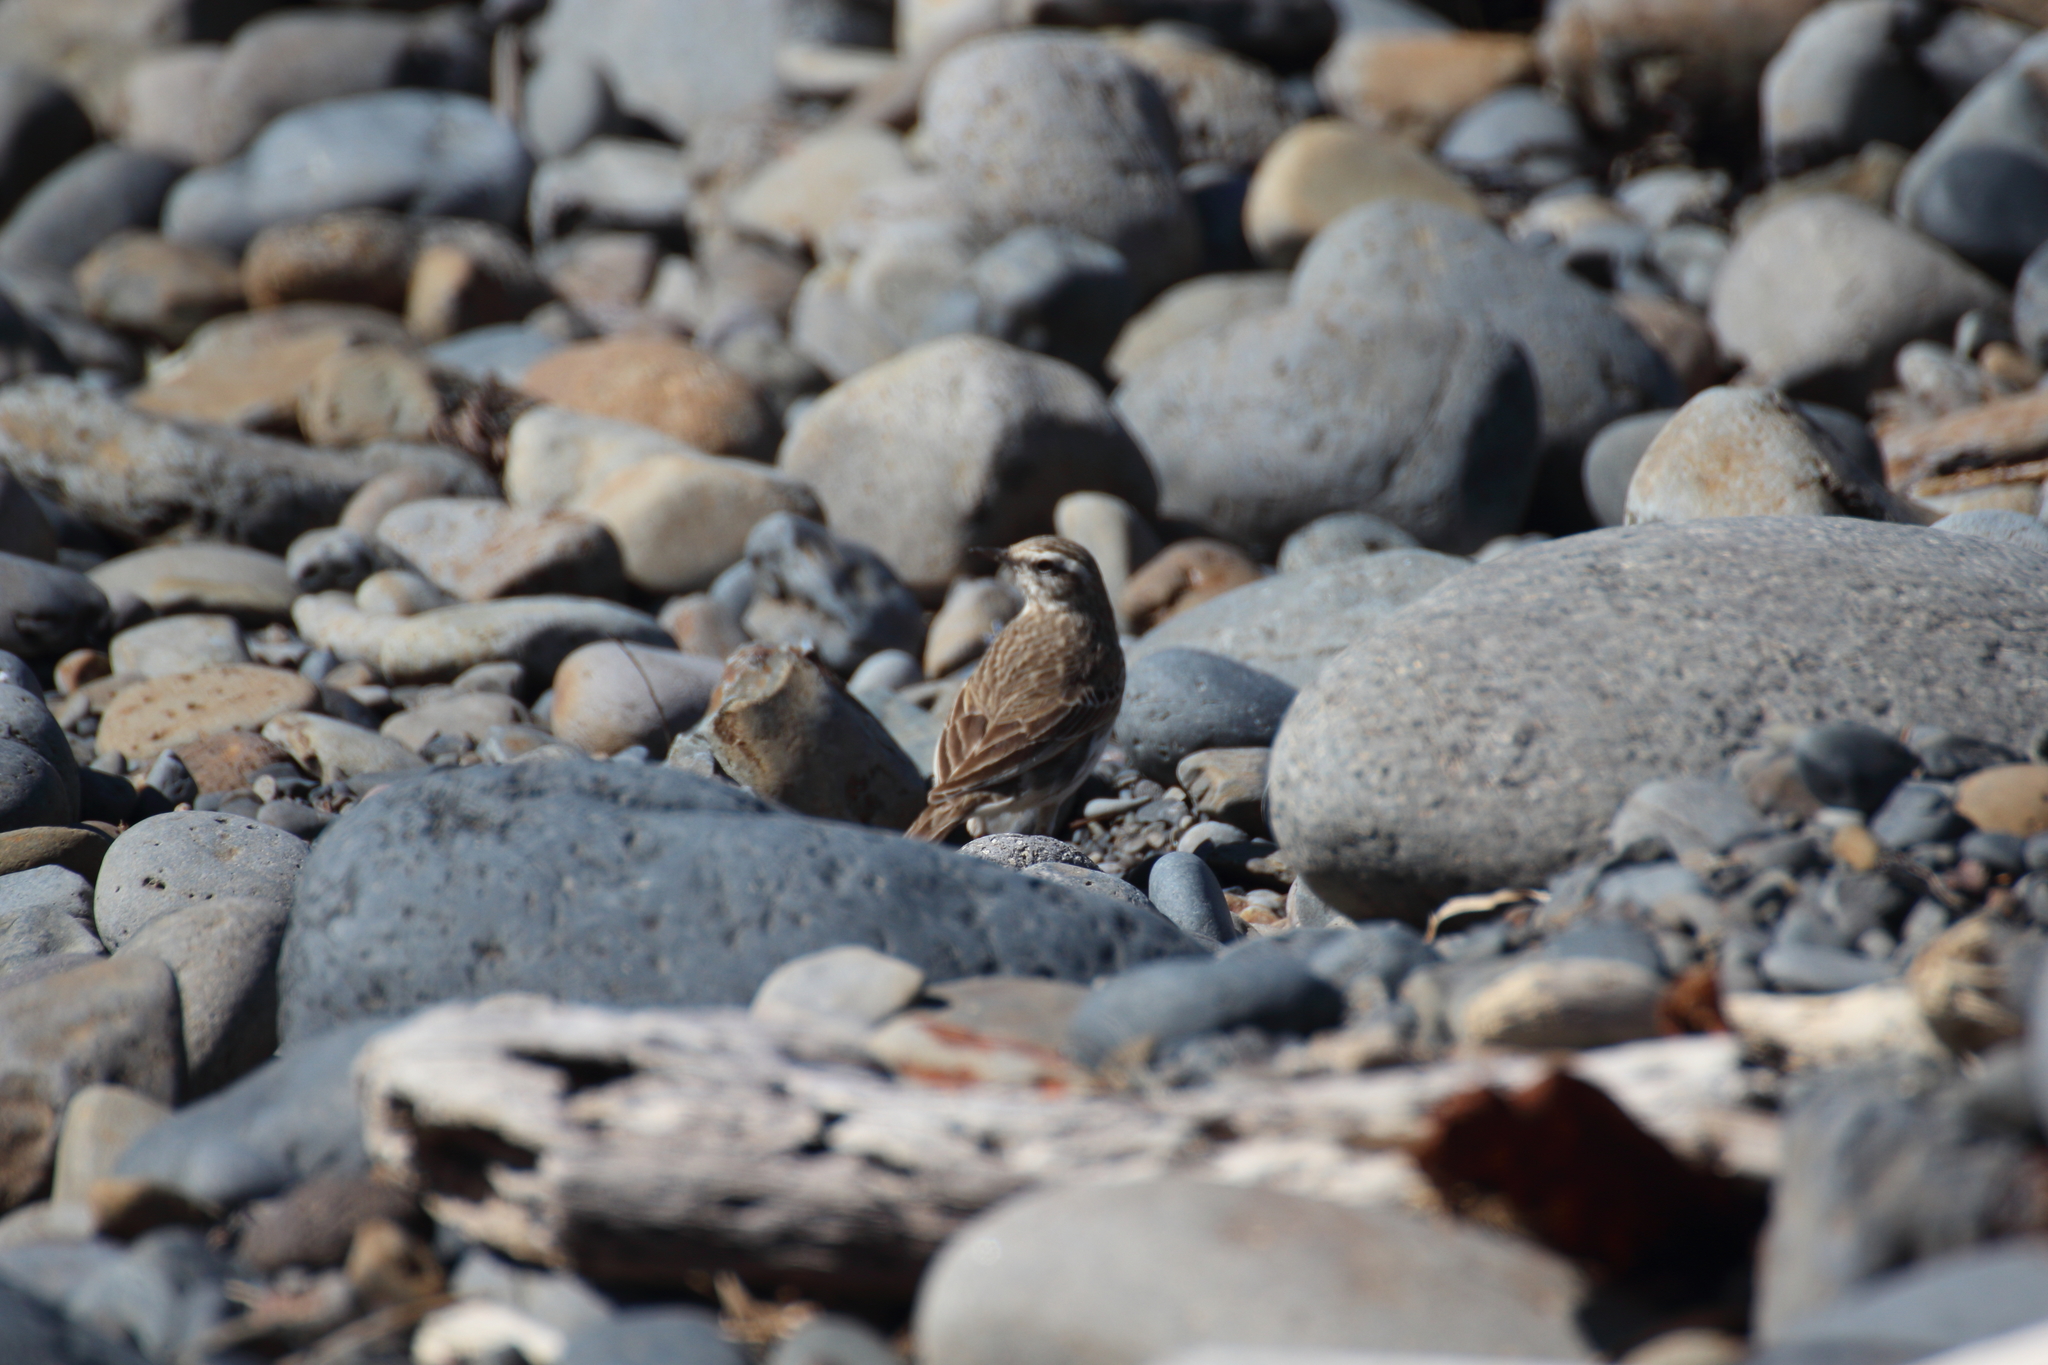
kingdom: Animalia
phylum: Chordata
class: Aves
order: Passeriformes
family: Motacillidae
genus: Anthus
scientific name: Anthus novaeseelandiae
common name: New zealand pipit
